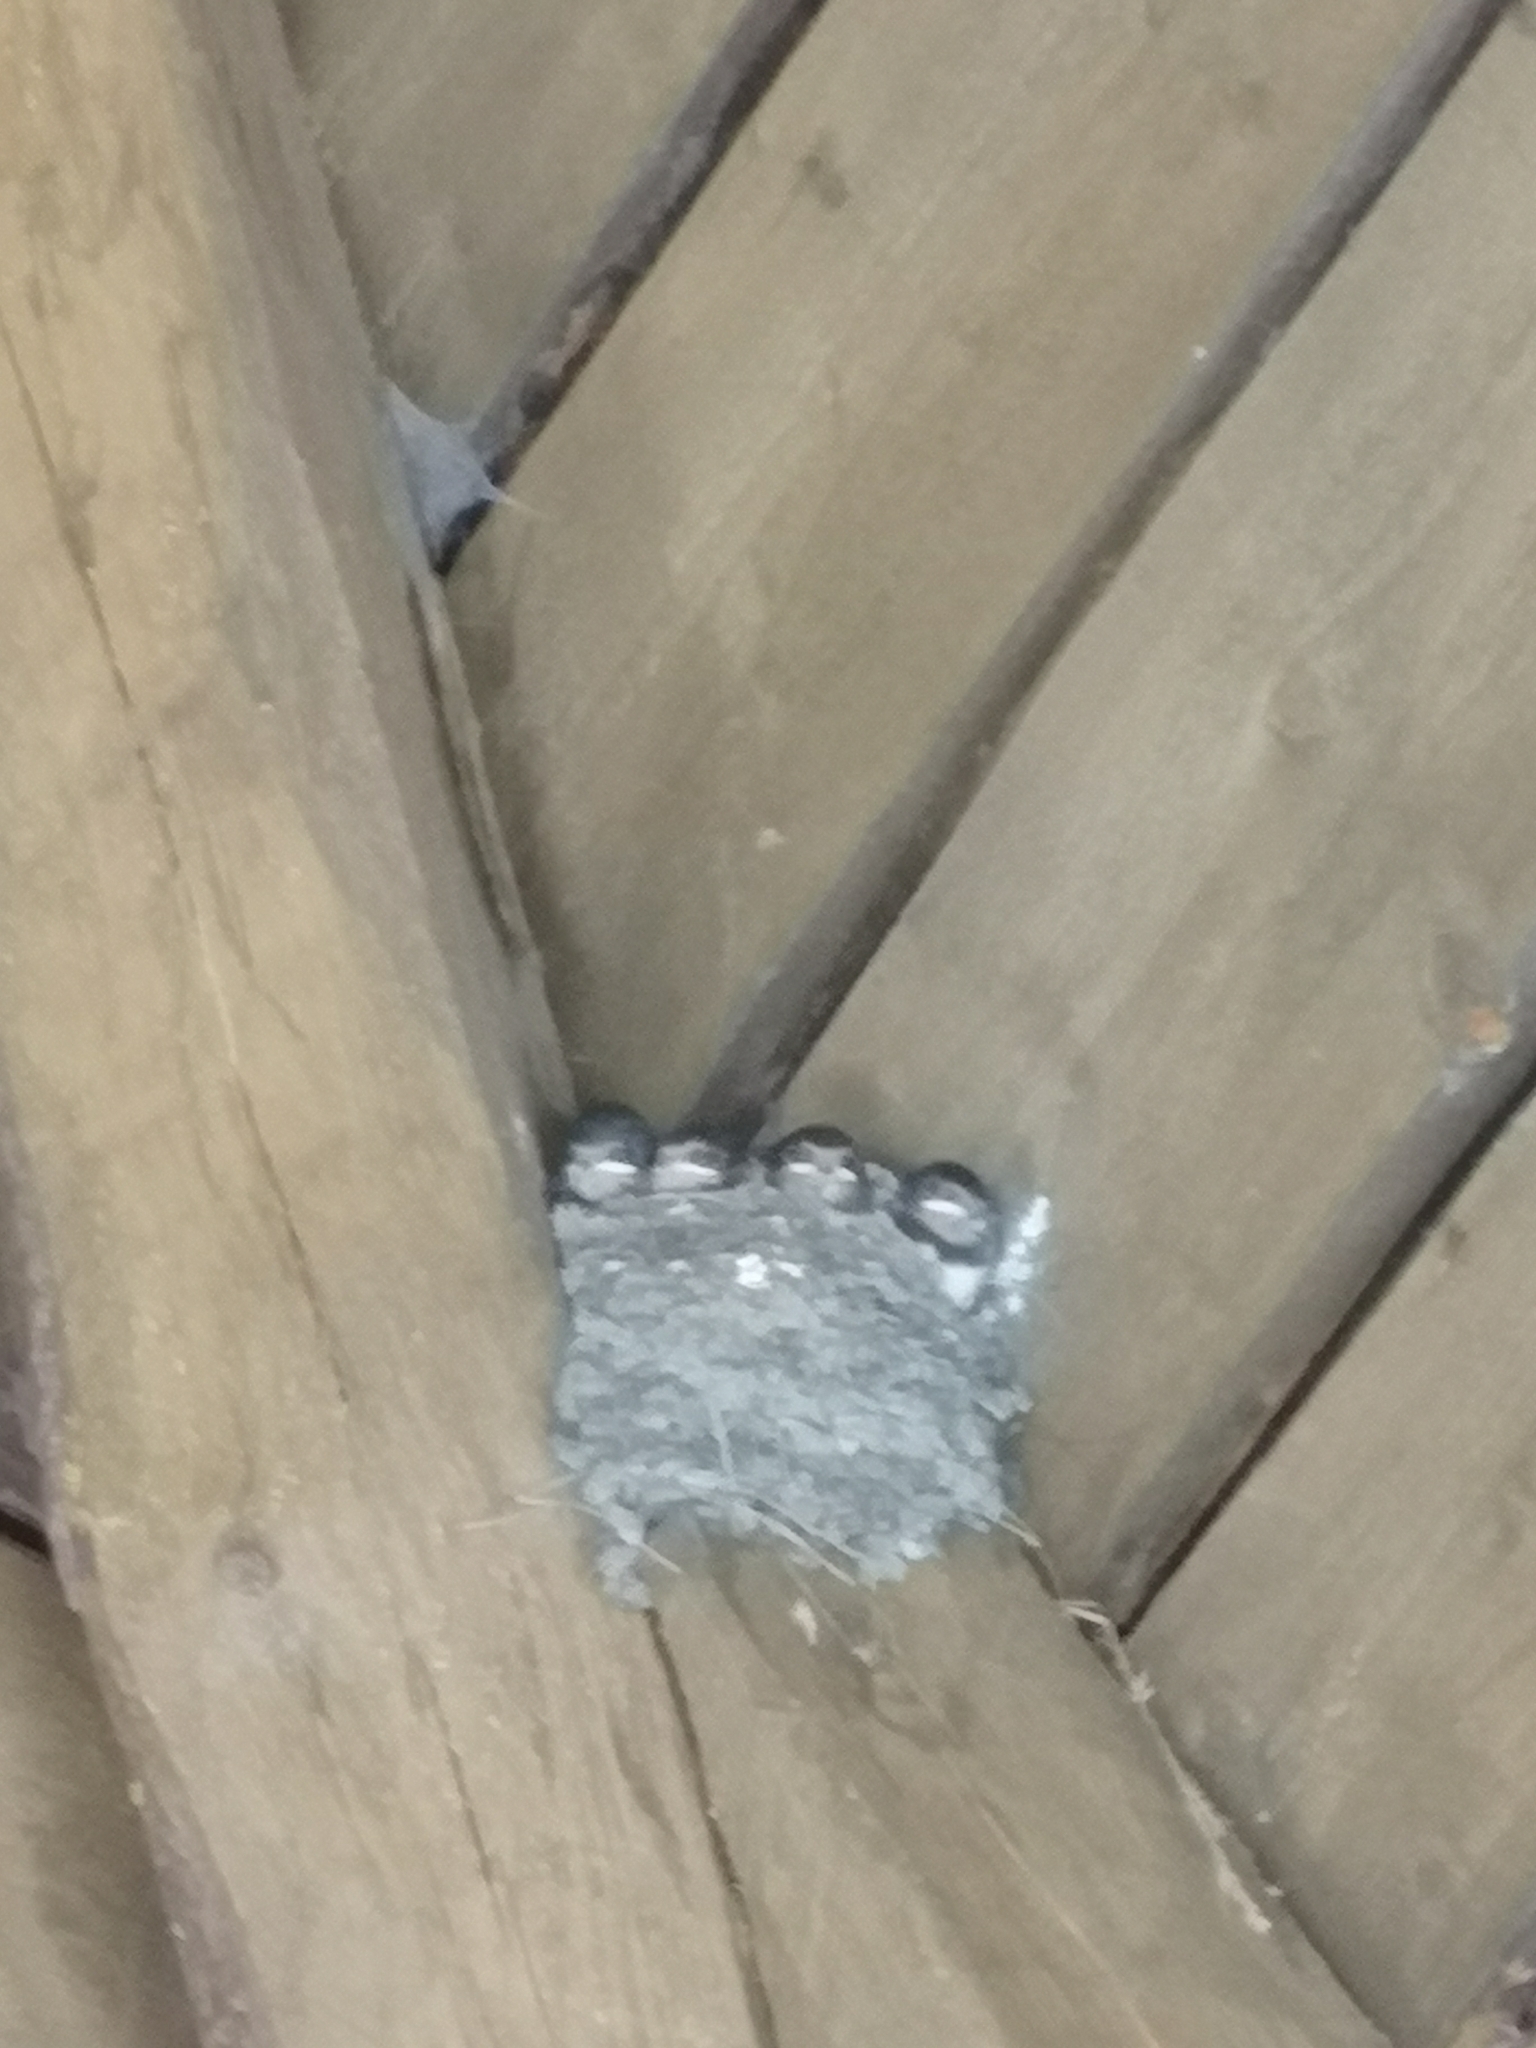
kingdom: Animalia
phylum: Chordata
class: Aves
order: Passeriformes
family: Hirundinidae
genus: Hirundo
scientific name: Hirundo rustica
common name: Barn swallow
